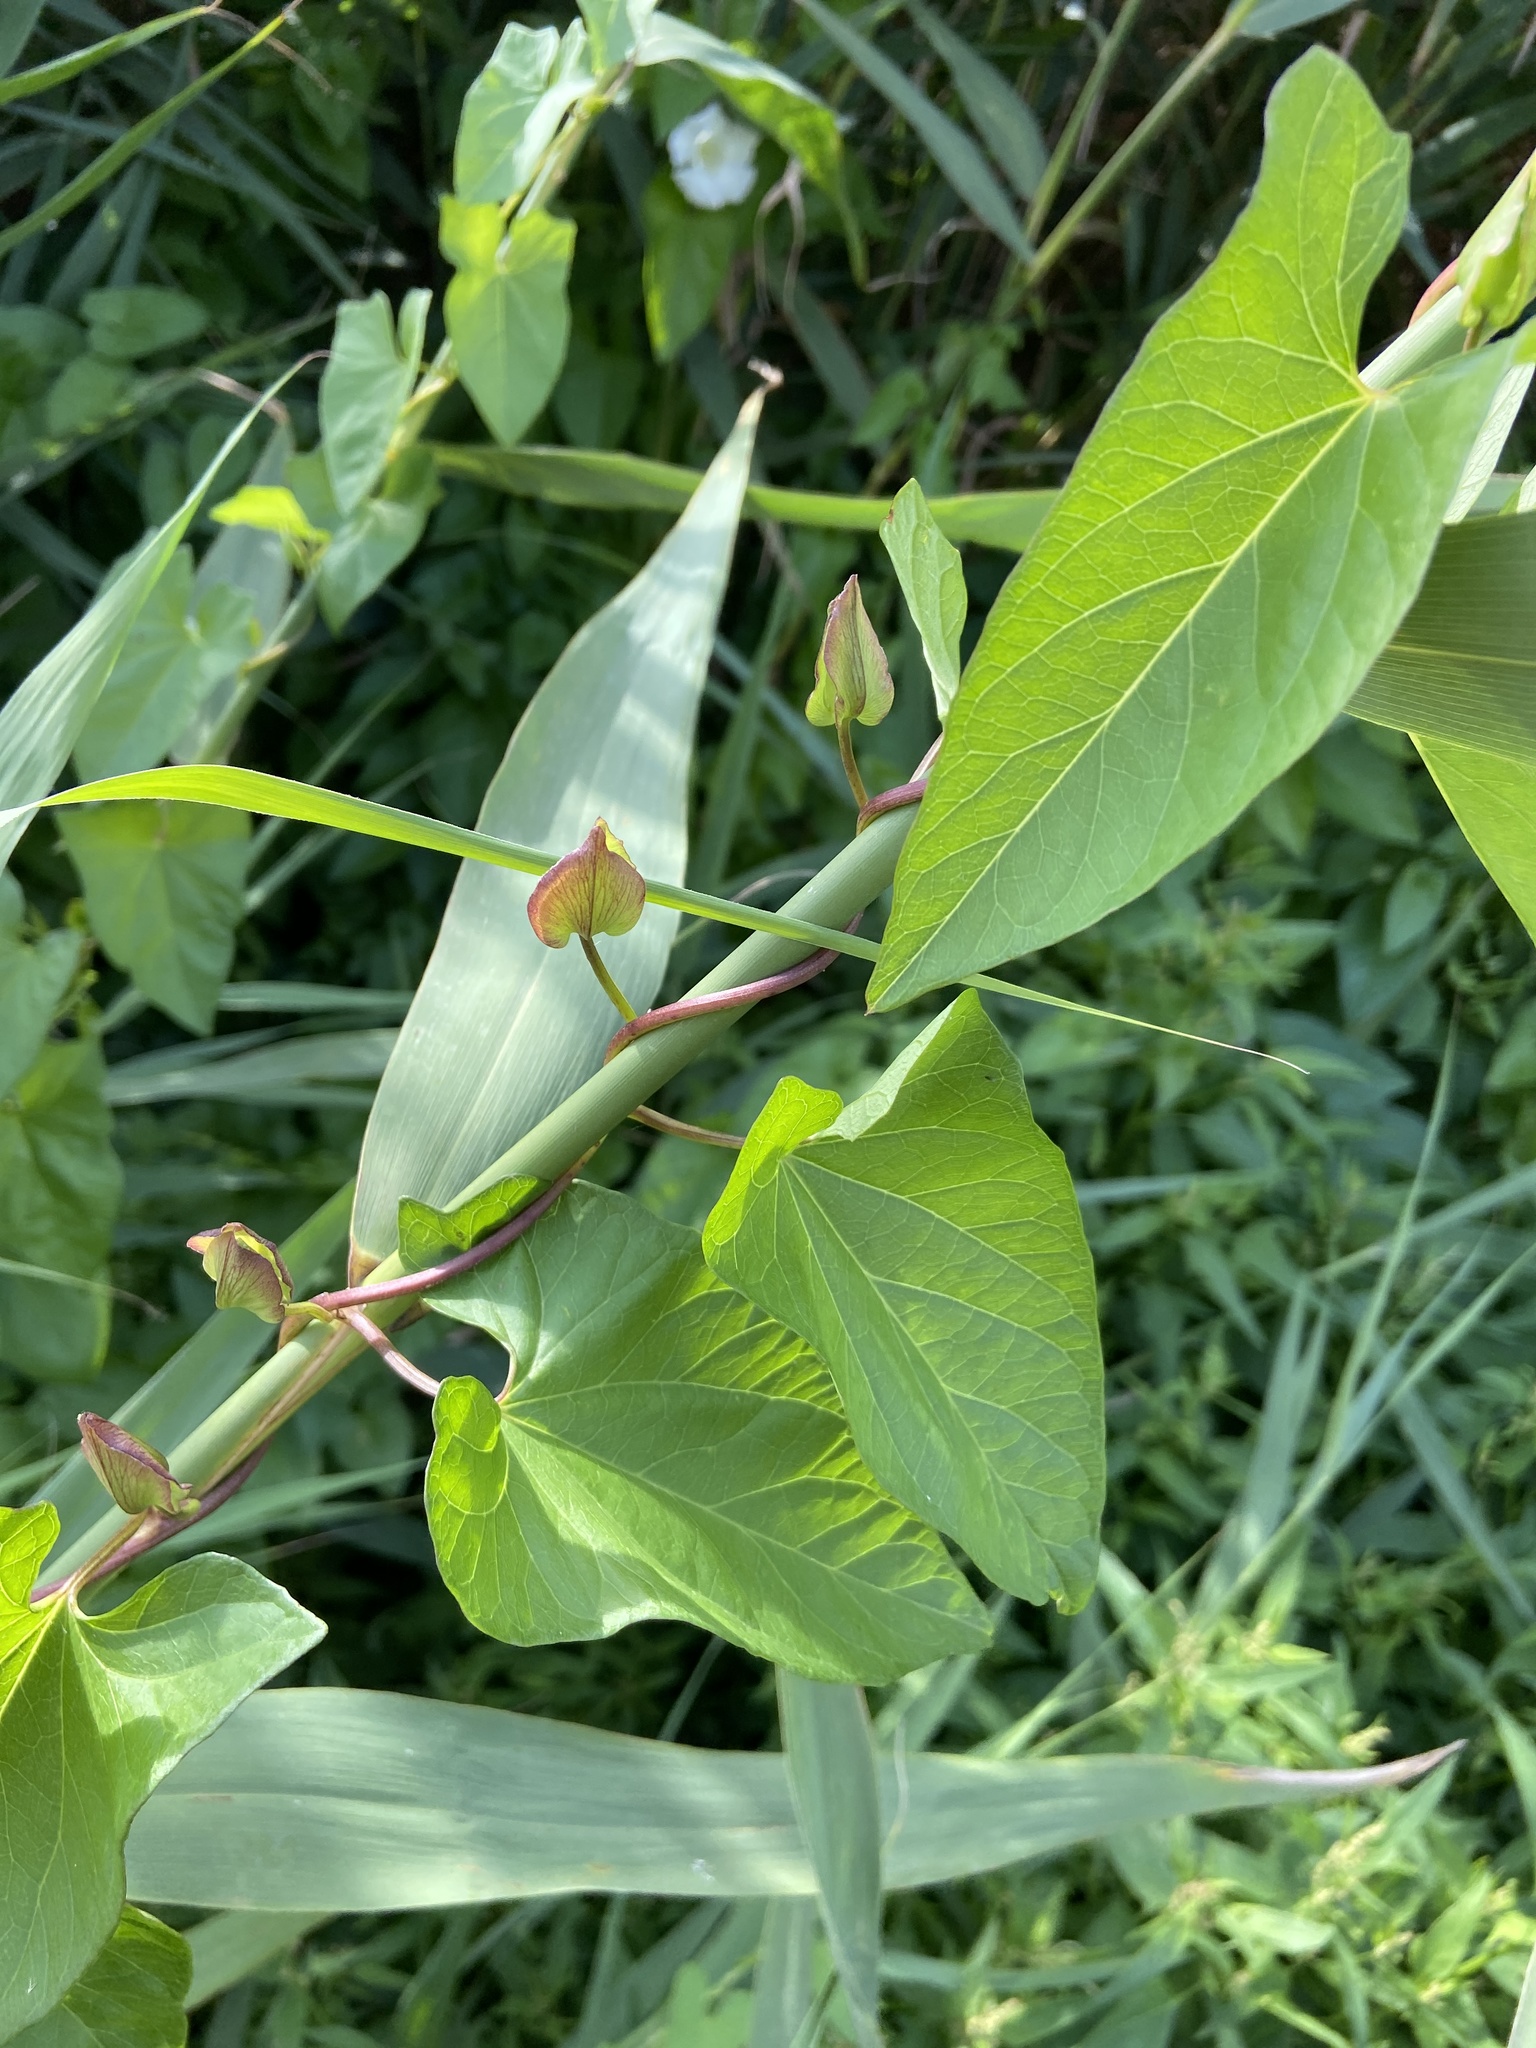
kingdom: Plantae
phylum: Tracheophyta
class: Magnoliopsida
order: Solanales
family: Convolvulaceae
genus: Calystegia
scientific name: Calystegia sepium
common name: Hedge bindweed
